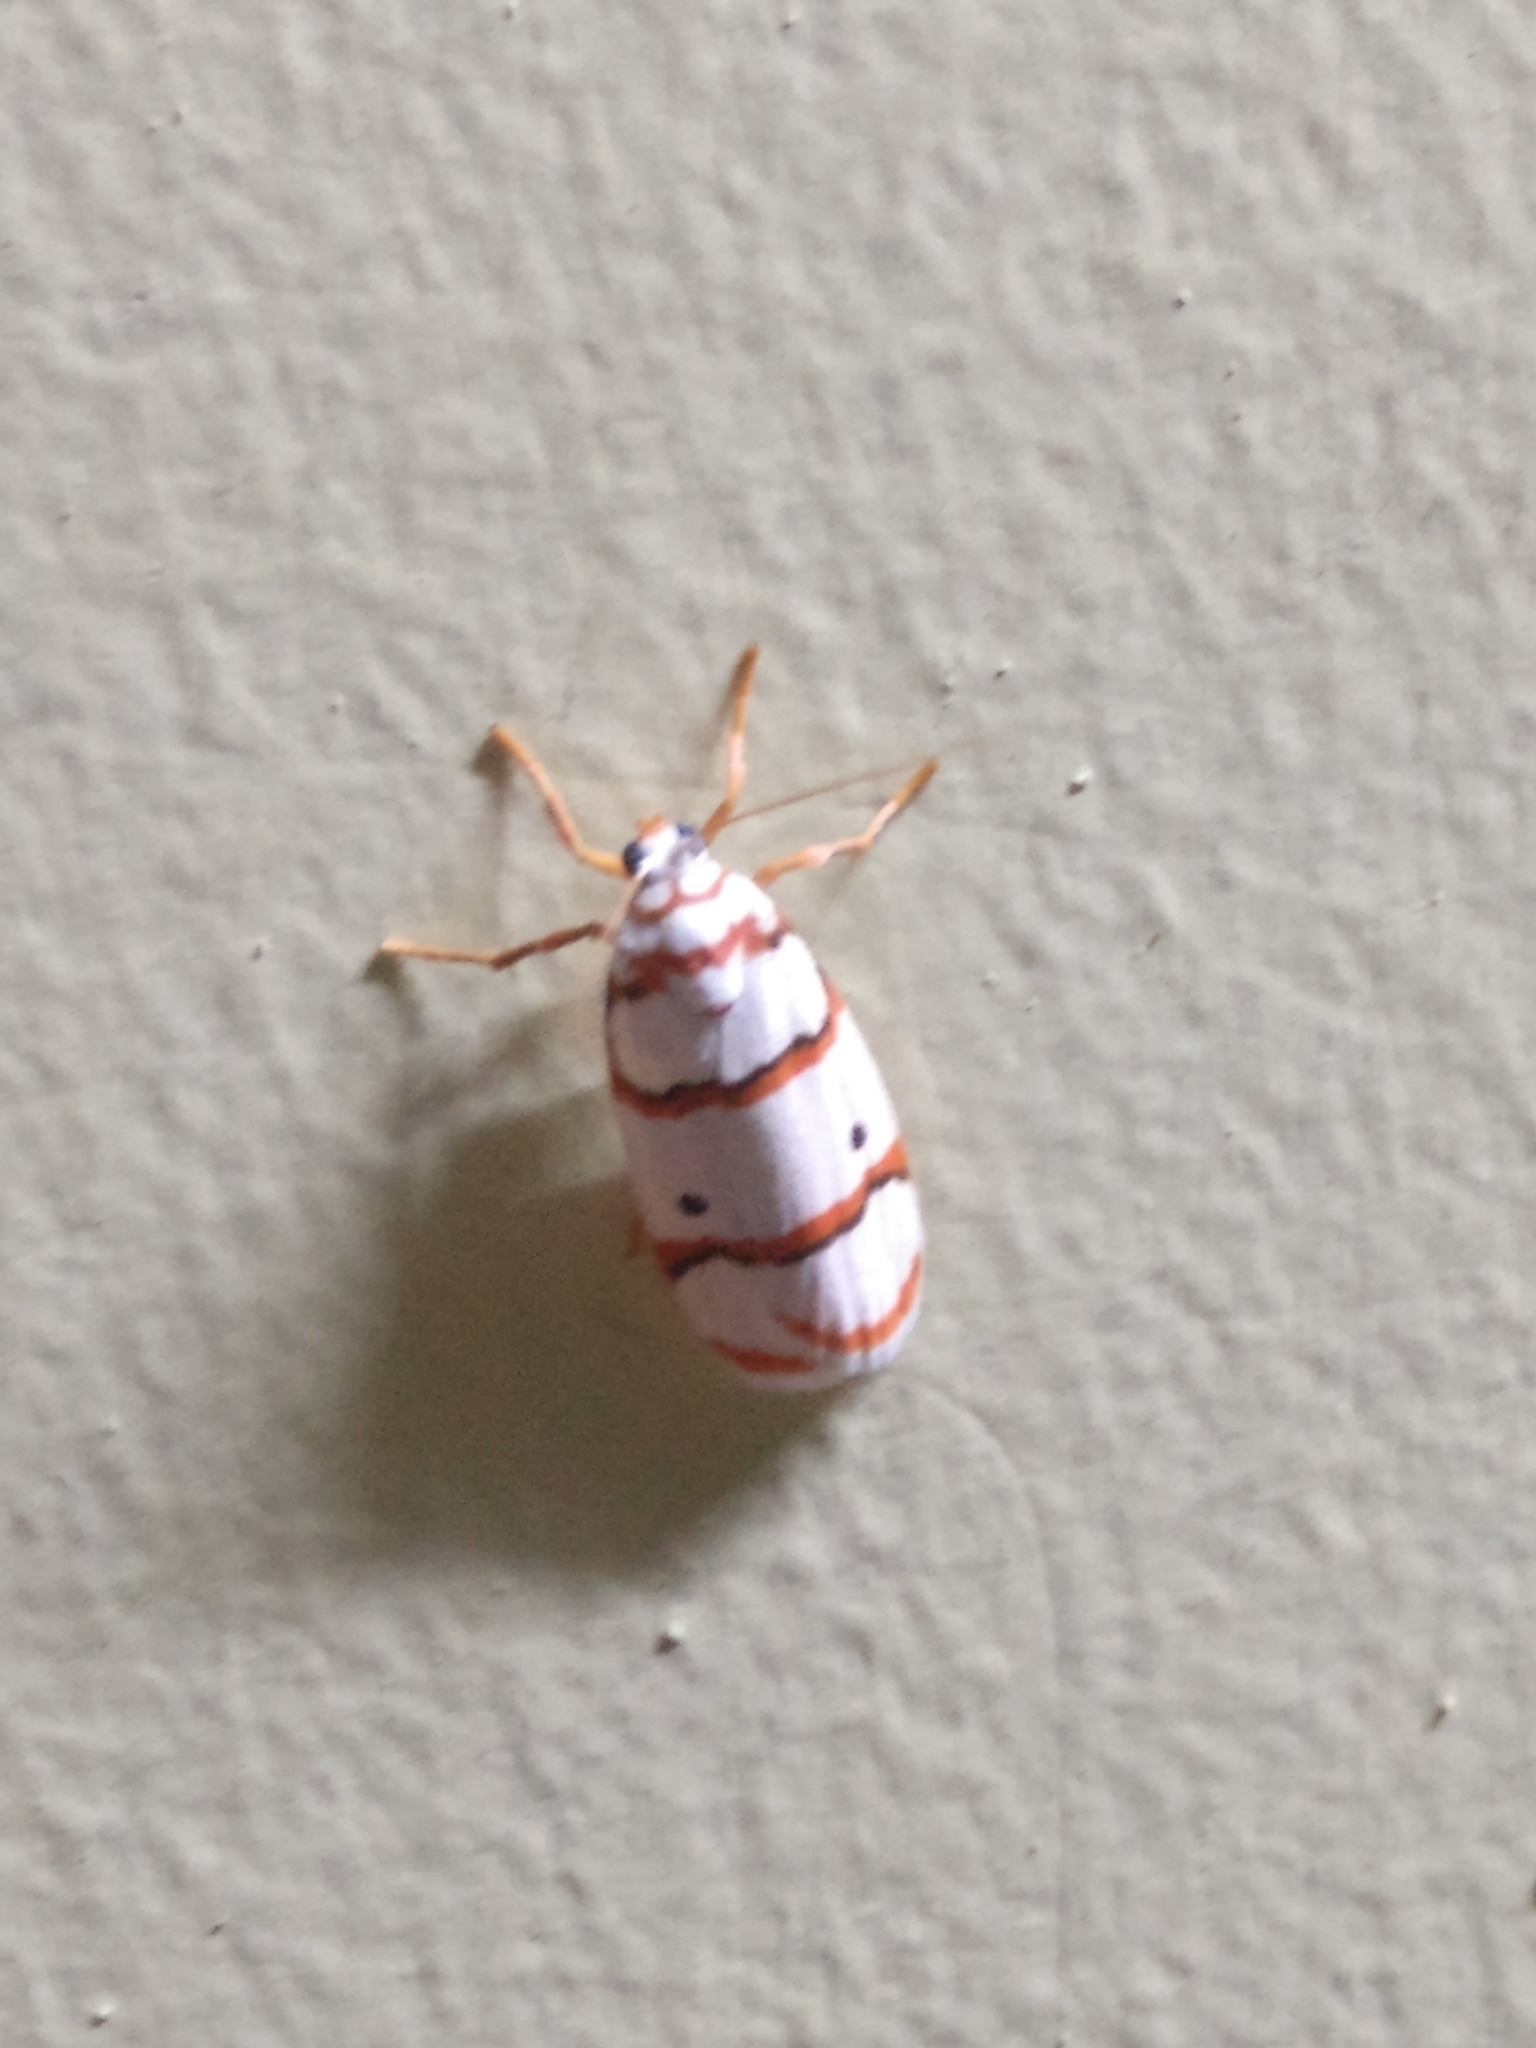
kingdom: Animalia
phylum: Arthropoda
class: Insecta
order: Lepidoptera
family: Erebidae
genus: Cyana
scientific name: Cyana peregrina
